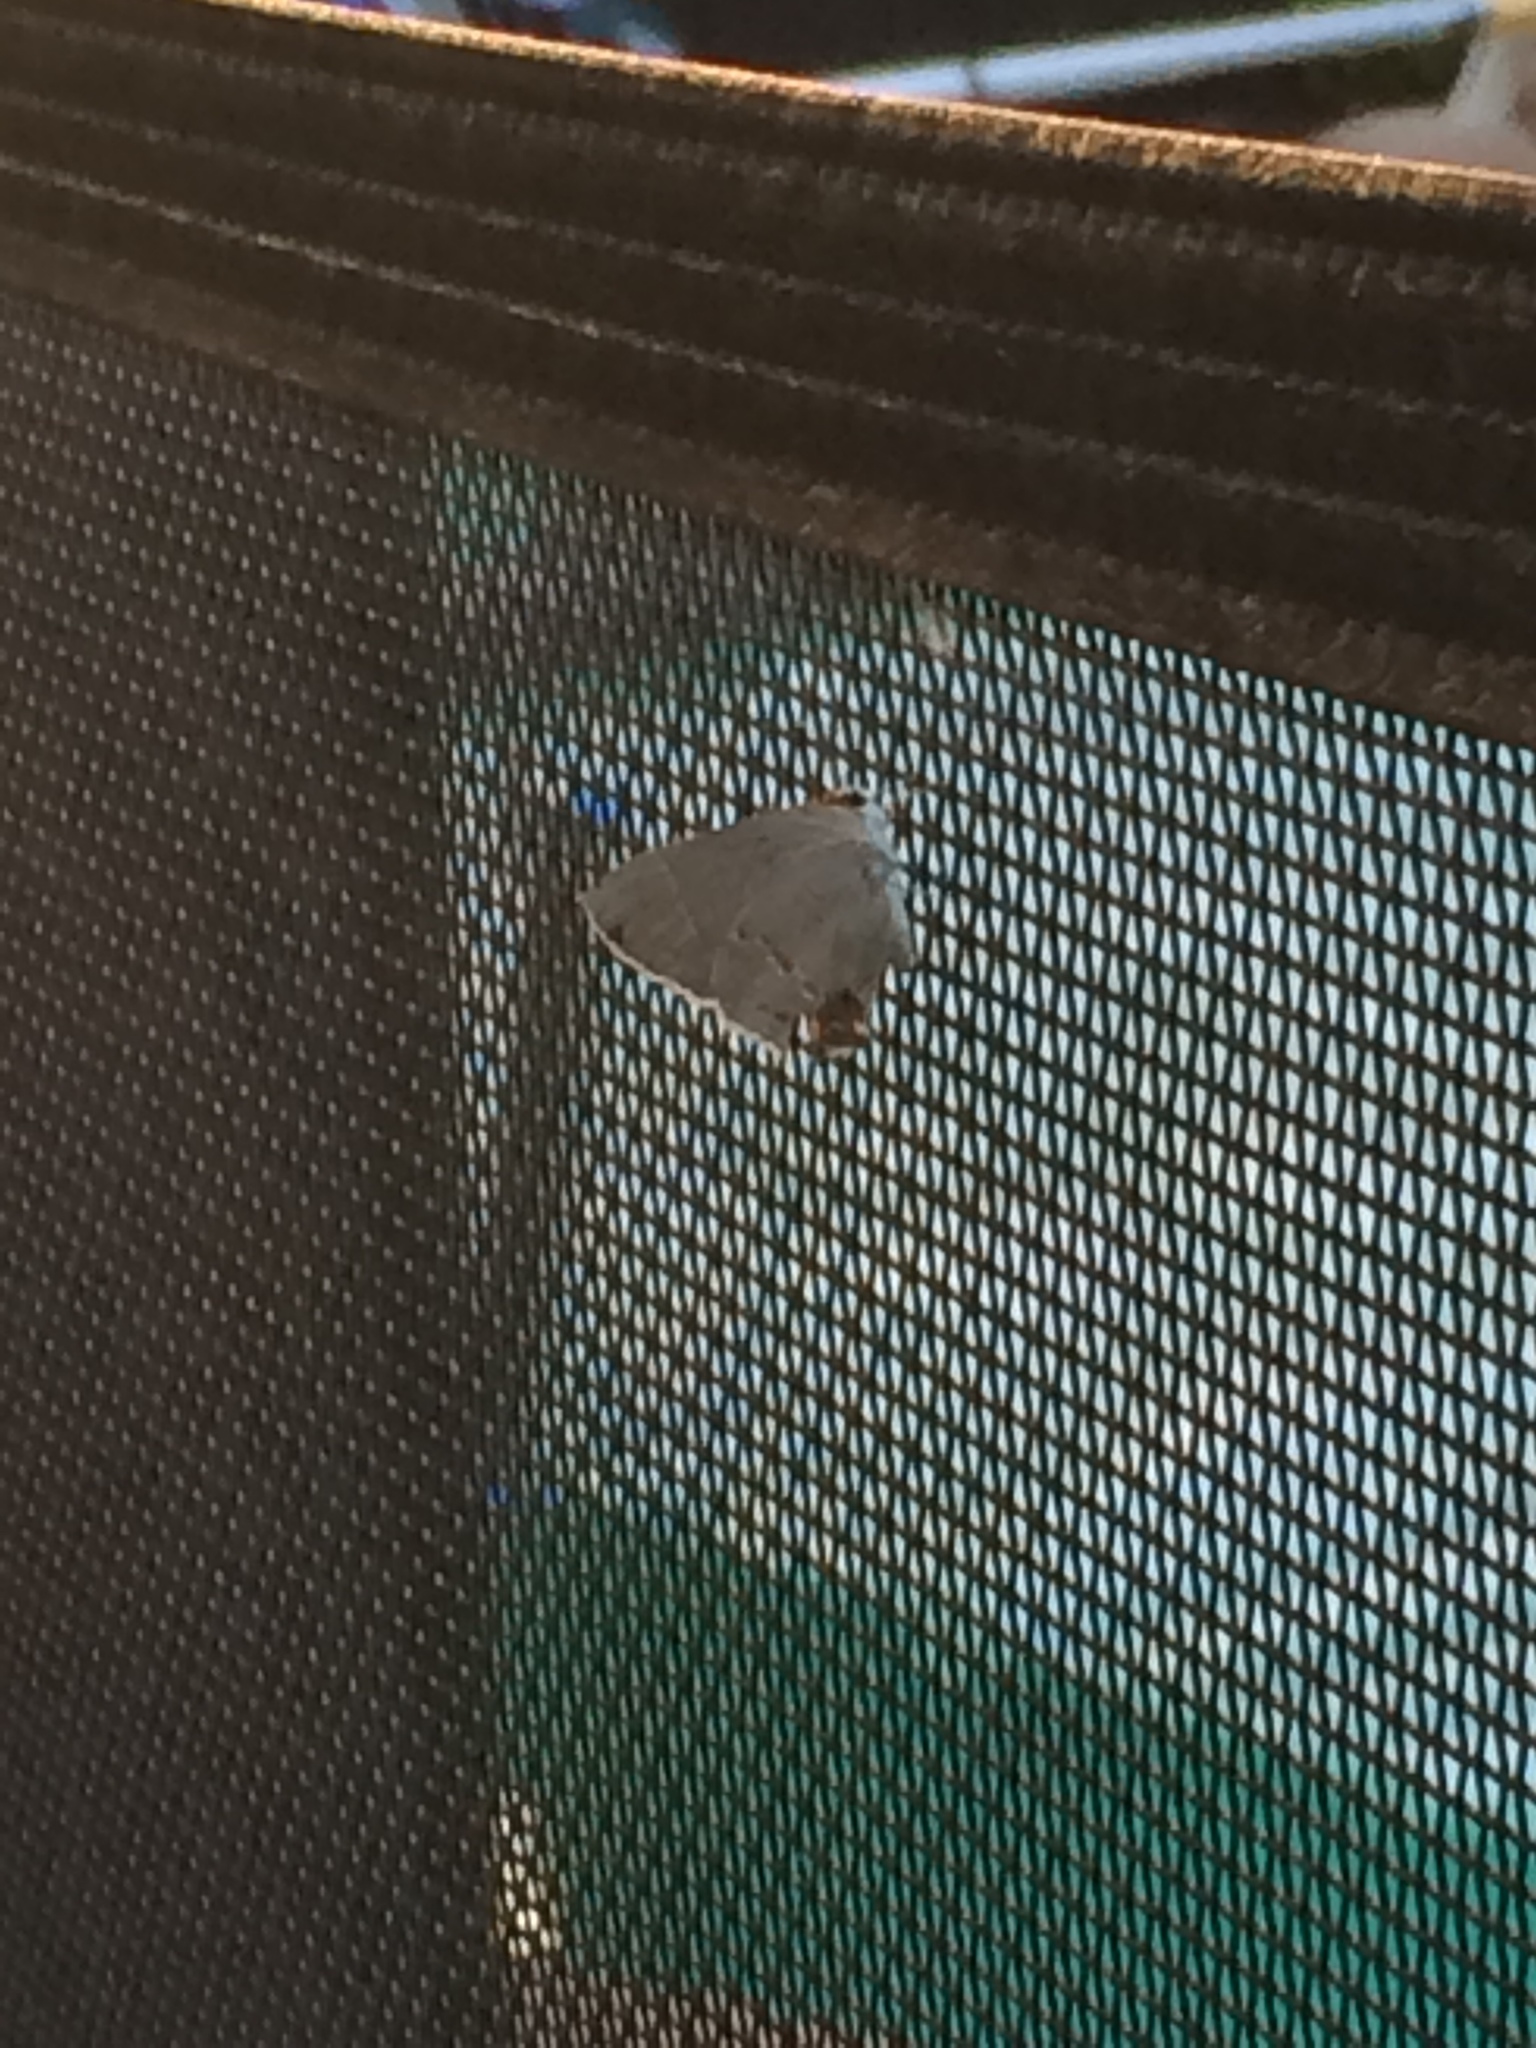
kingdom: Animalia
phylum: Arthropoda
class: Insecta
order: Lepidoptera
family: Lycaenidae
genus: Strymon
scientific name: Strymon melinus
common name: Gray hairstreak
